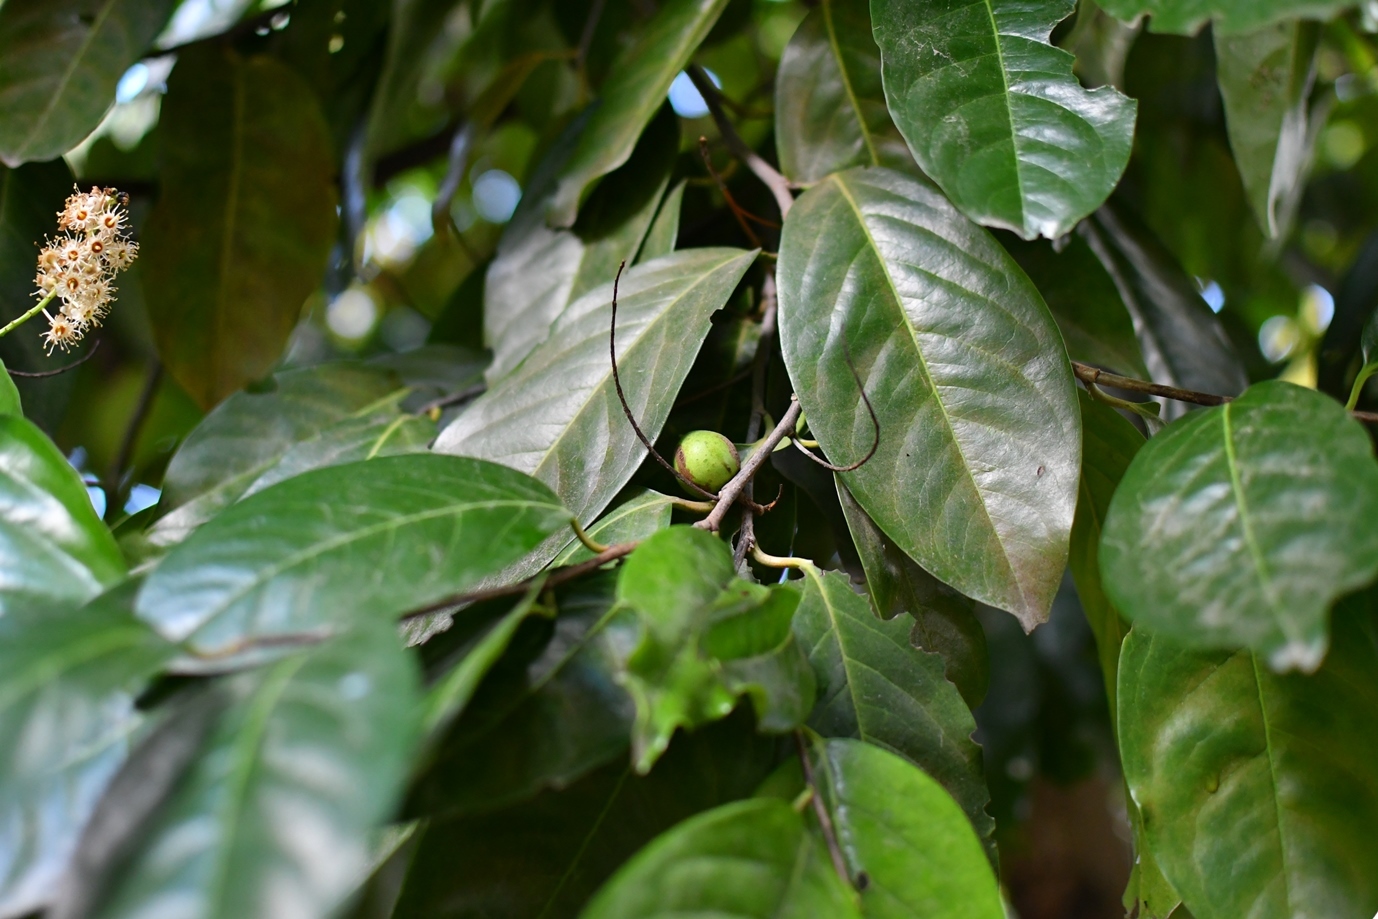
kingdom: Plantae
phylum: Tracheophyta
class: Magnoliopsida
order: Rosales
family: Rosaceae
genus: Prunus
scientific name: Prunus tetradenia
